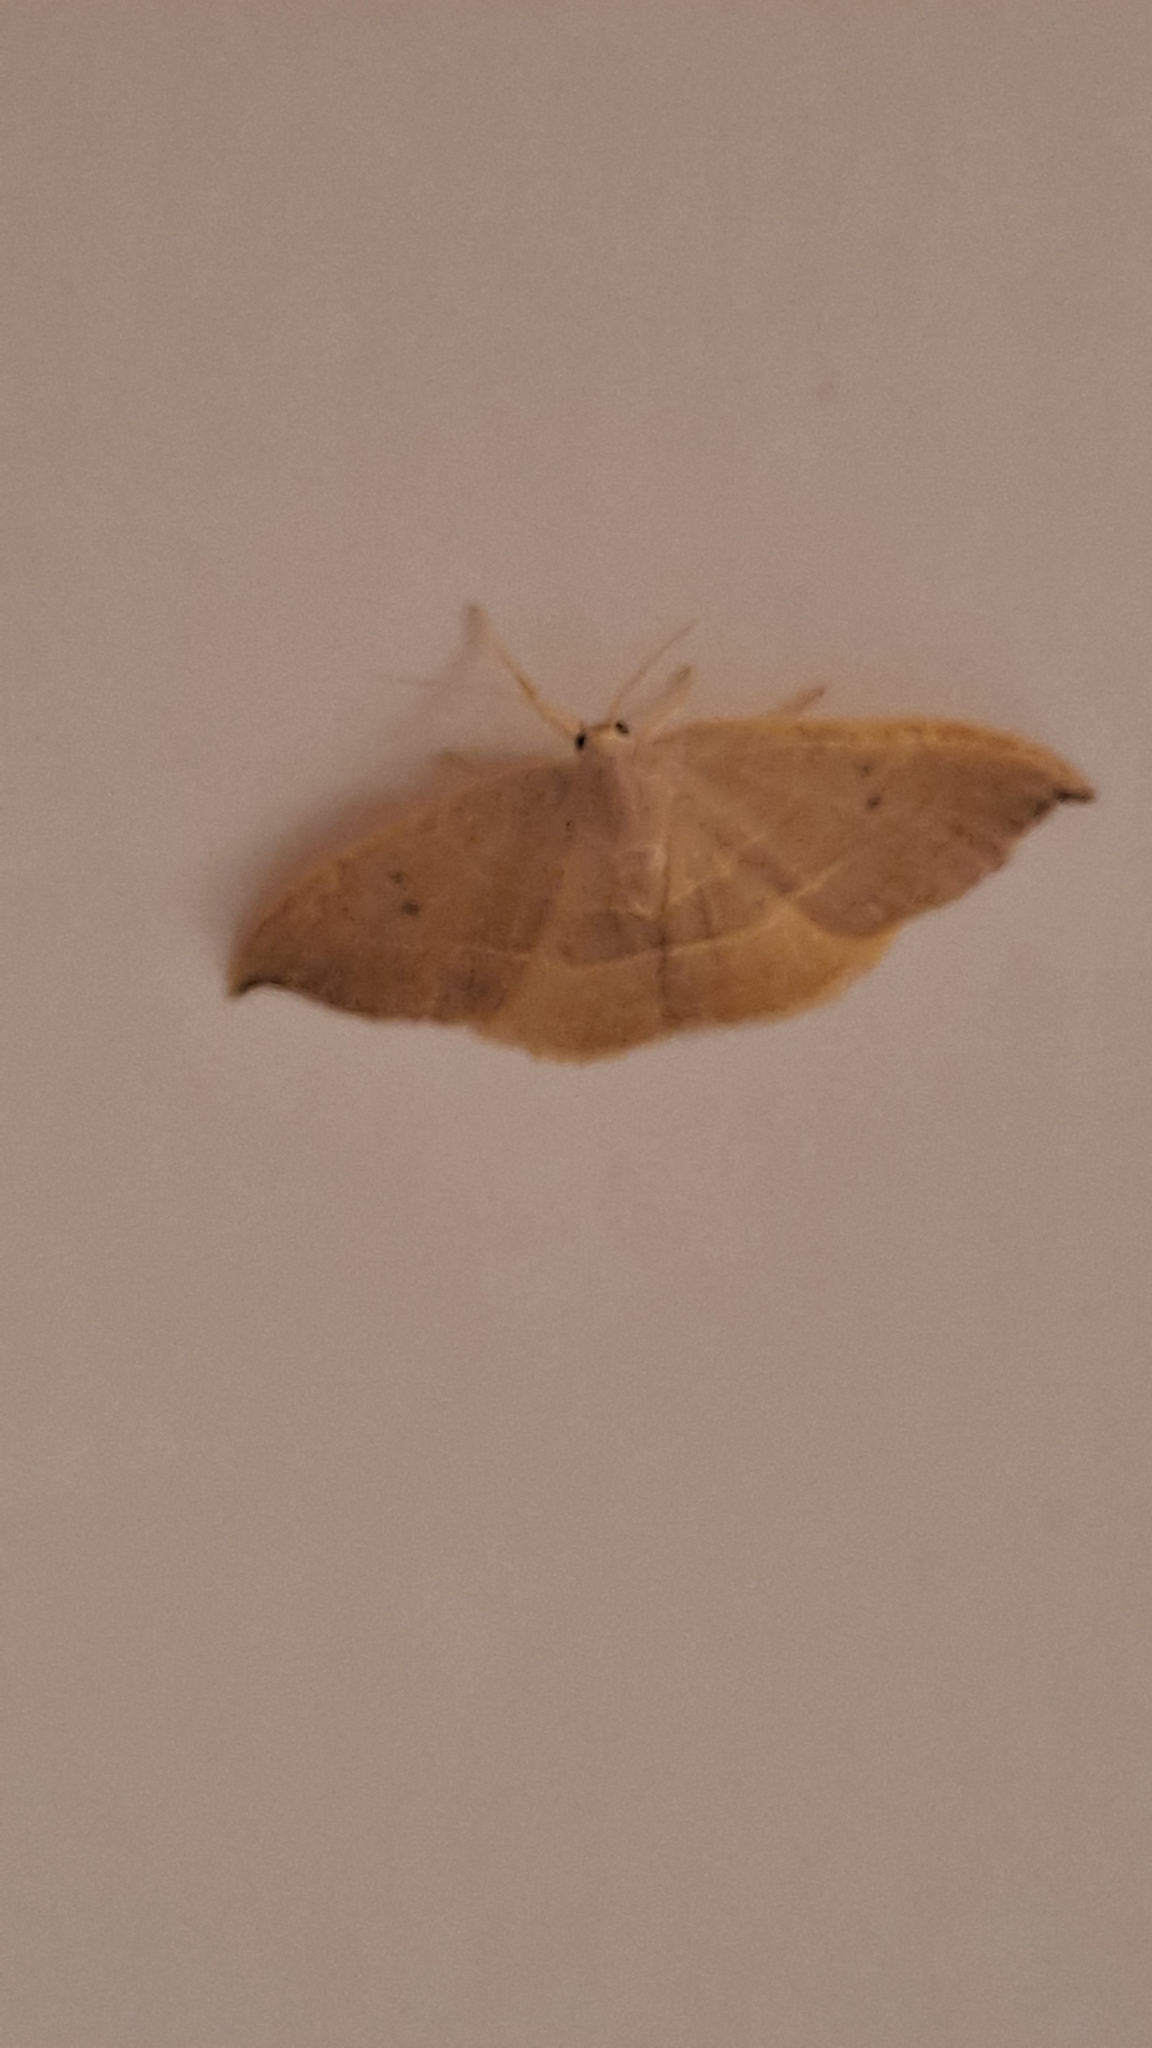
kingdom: Animalia
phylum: Arthropoda
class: Insecta
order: Lepidoptera
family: Drepanidae
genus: Watsonalla
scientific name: Watsonalla uncinula
